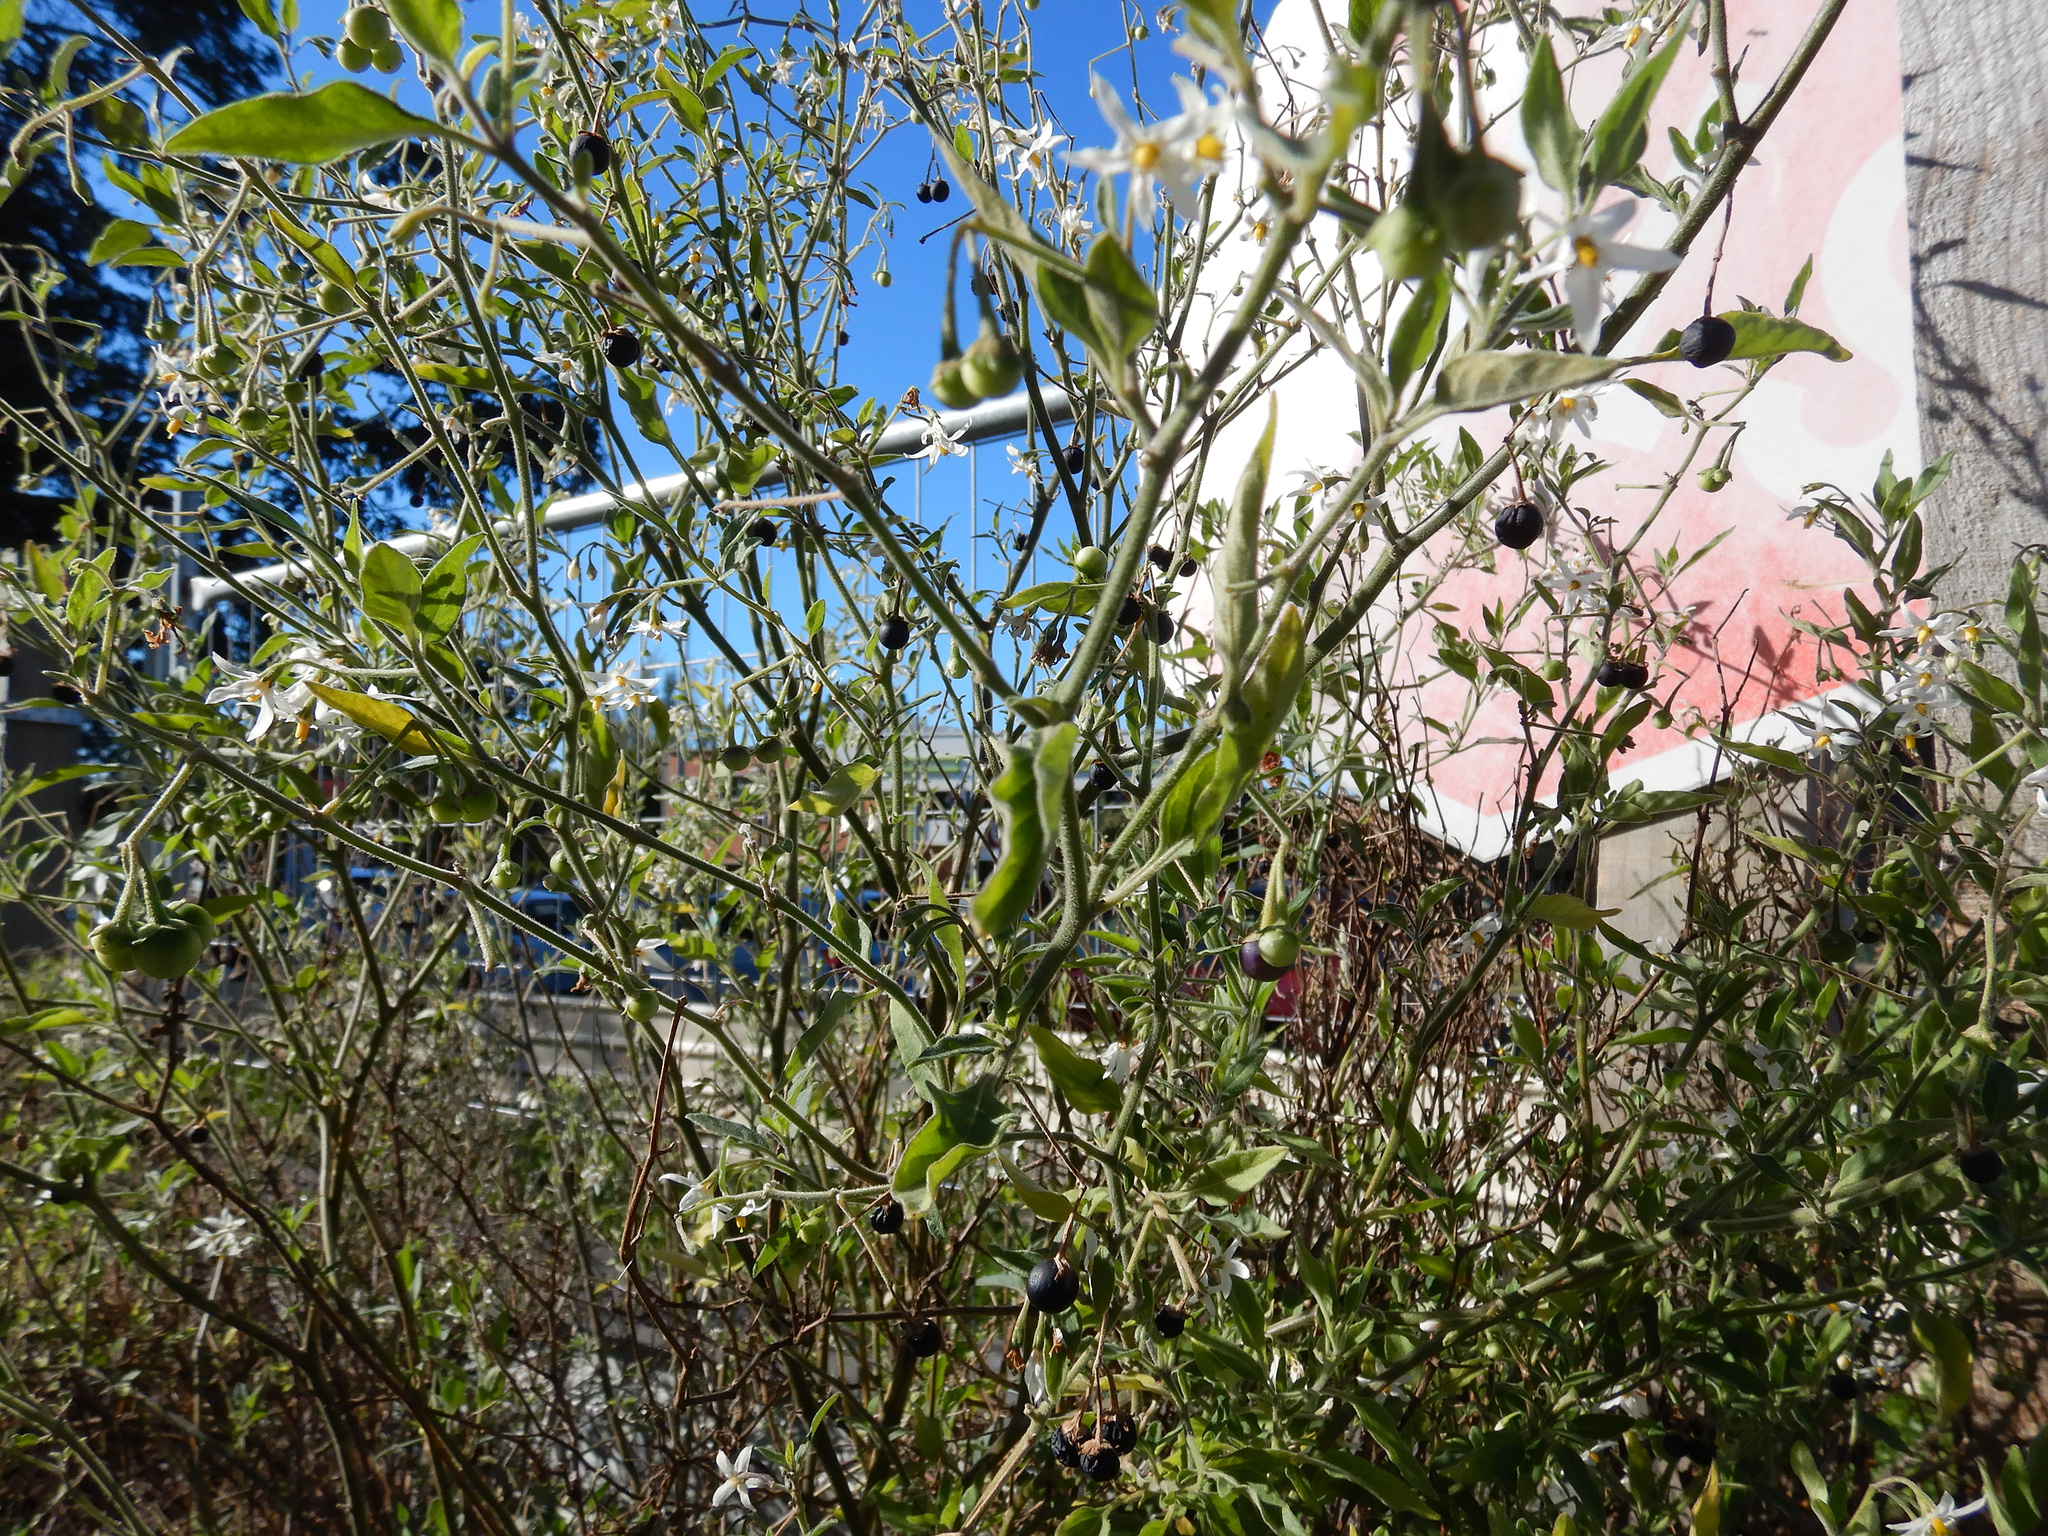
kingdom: Plantae
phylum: Tracheophyta
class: Magnoliopsida
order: Solanales
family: Solanaceae
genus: Solanum
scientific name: Solanum chenopodioides
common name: Tall nightshade
